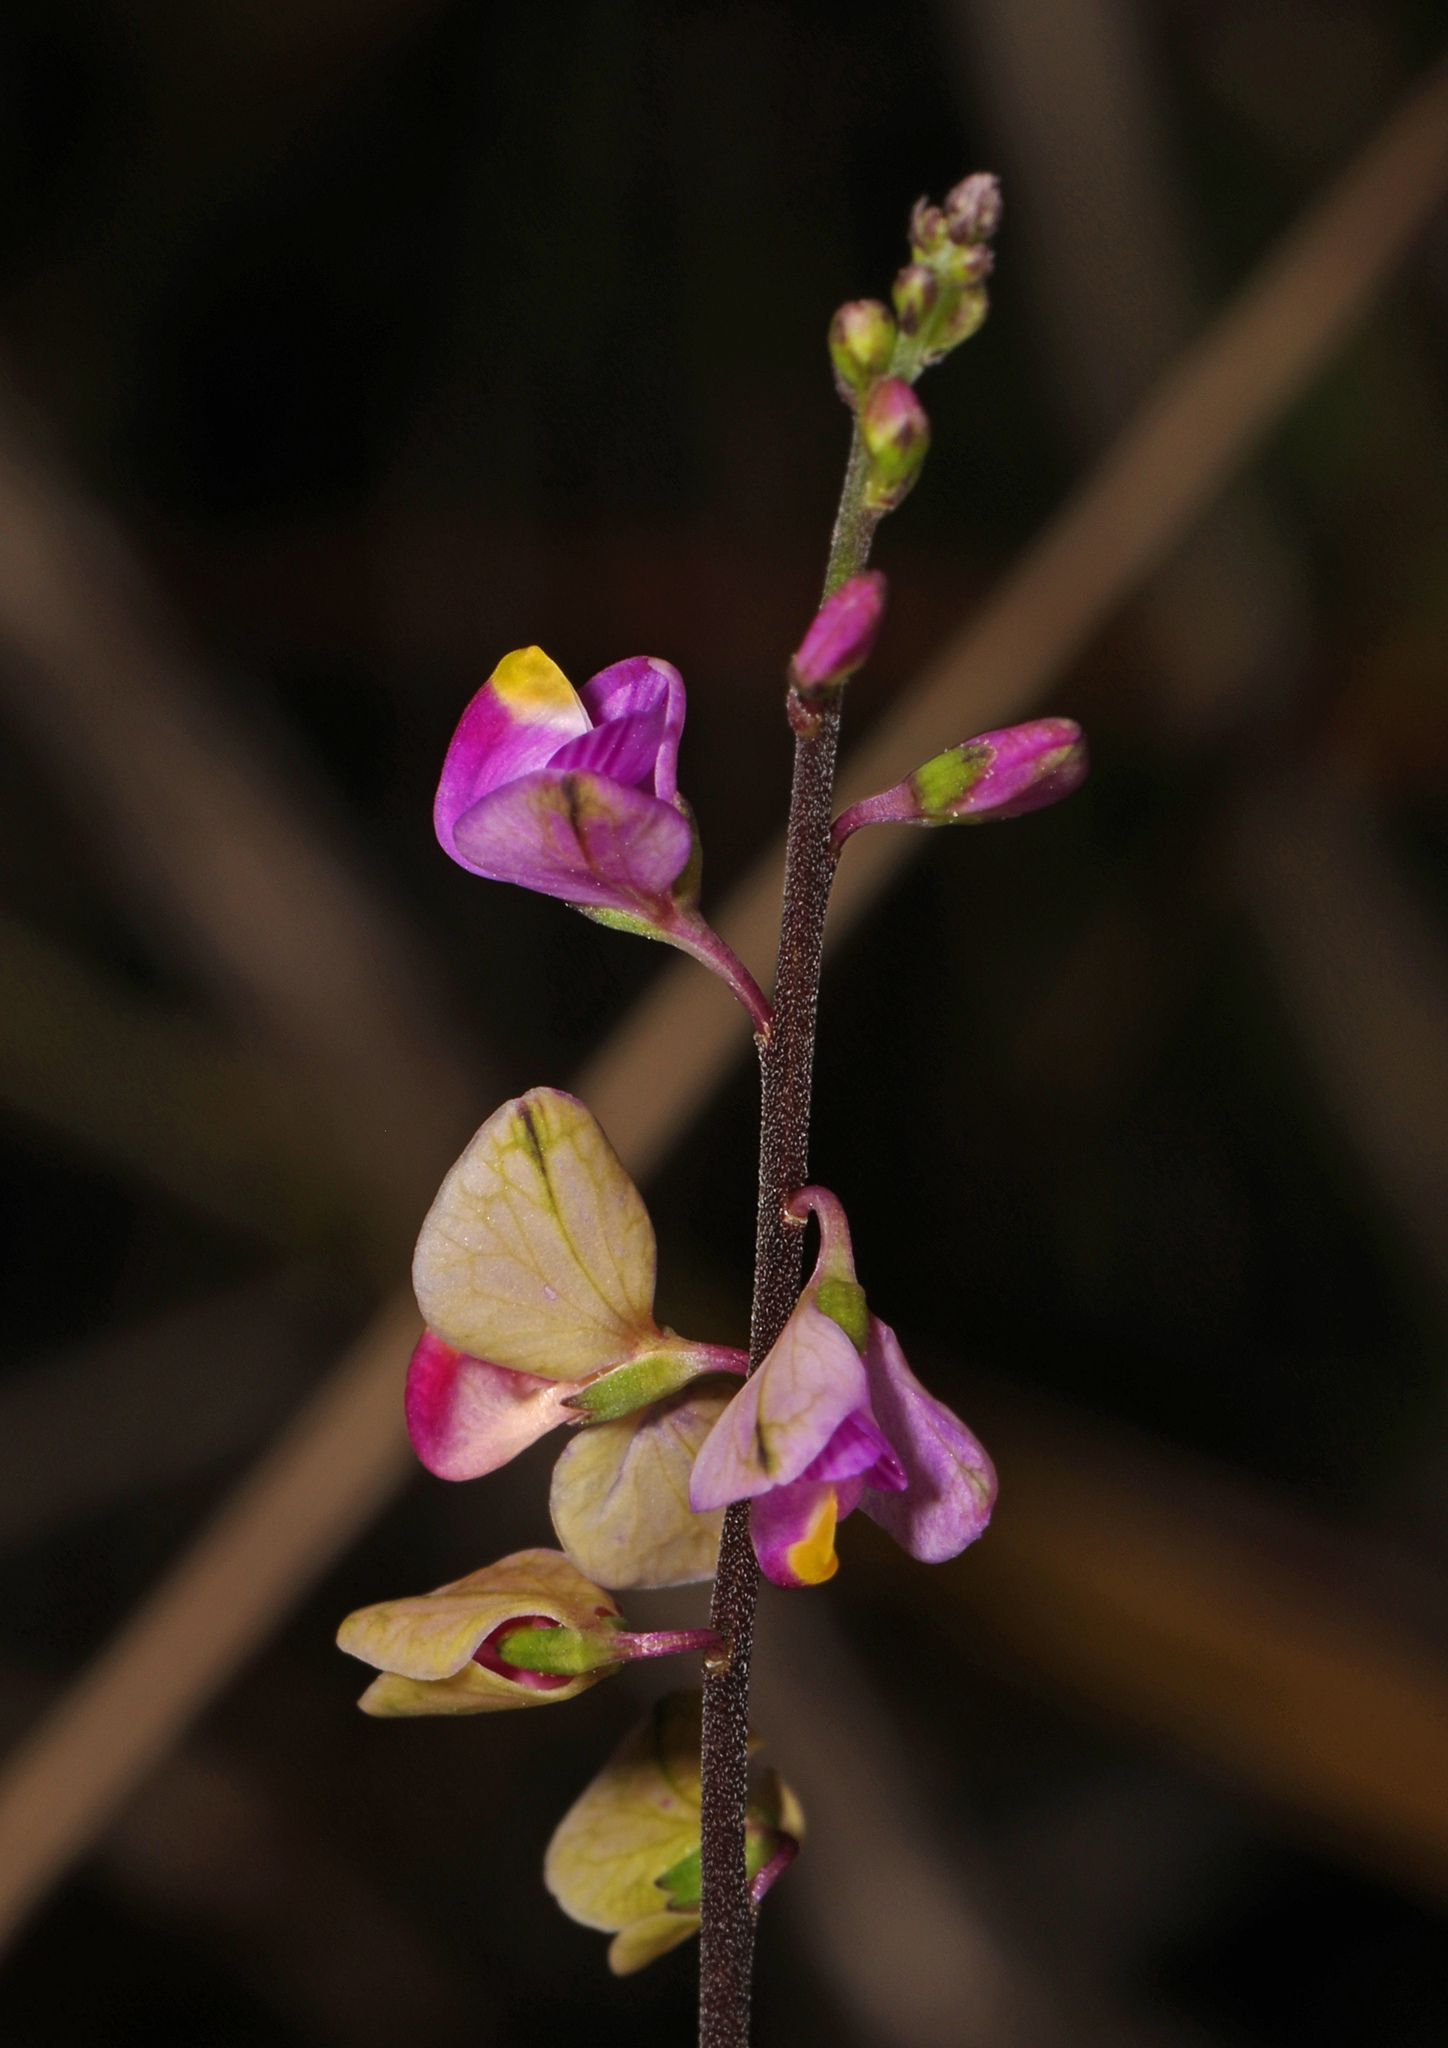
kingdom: Plantae
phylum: Tracheophyta
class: Magnoliopsida
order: Fabales
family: Polygalaceae
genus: Asemeia
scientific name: Asemeia grandiflora
